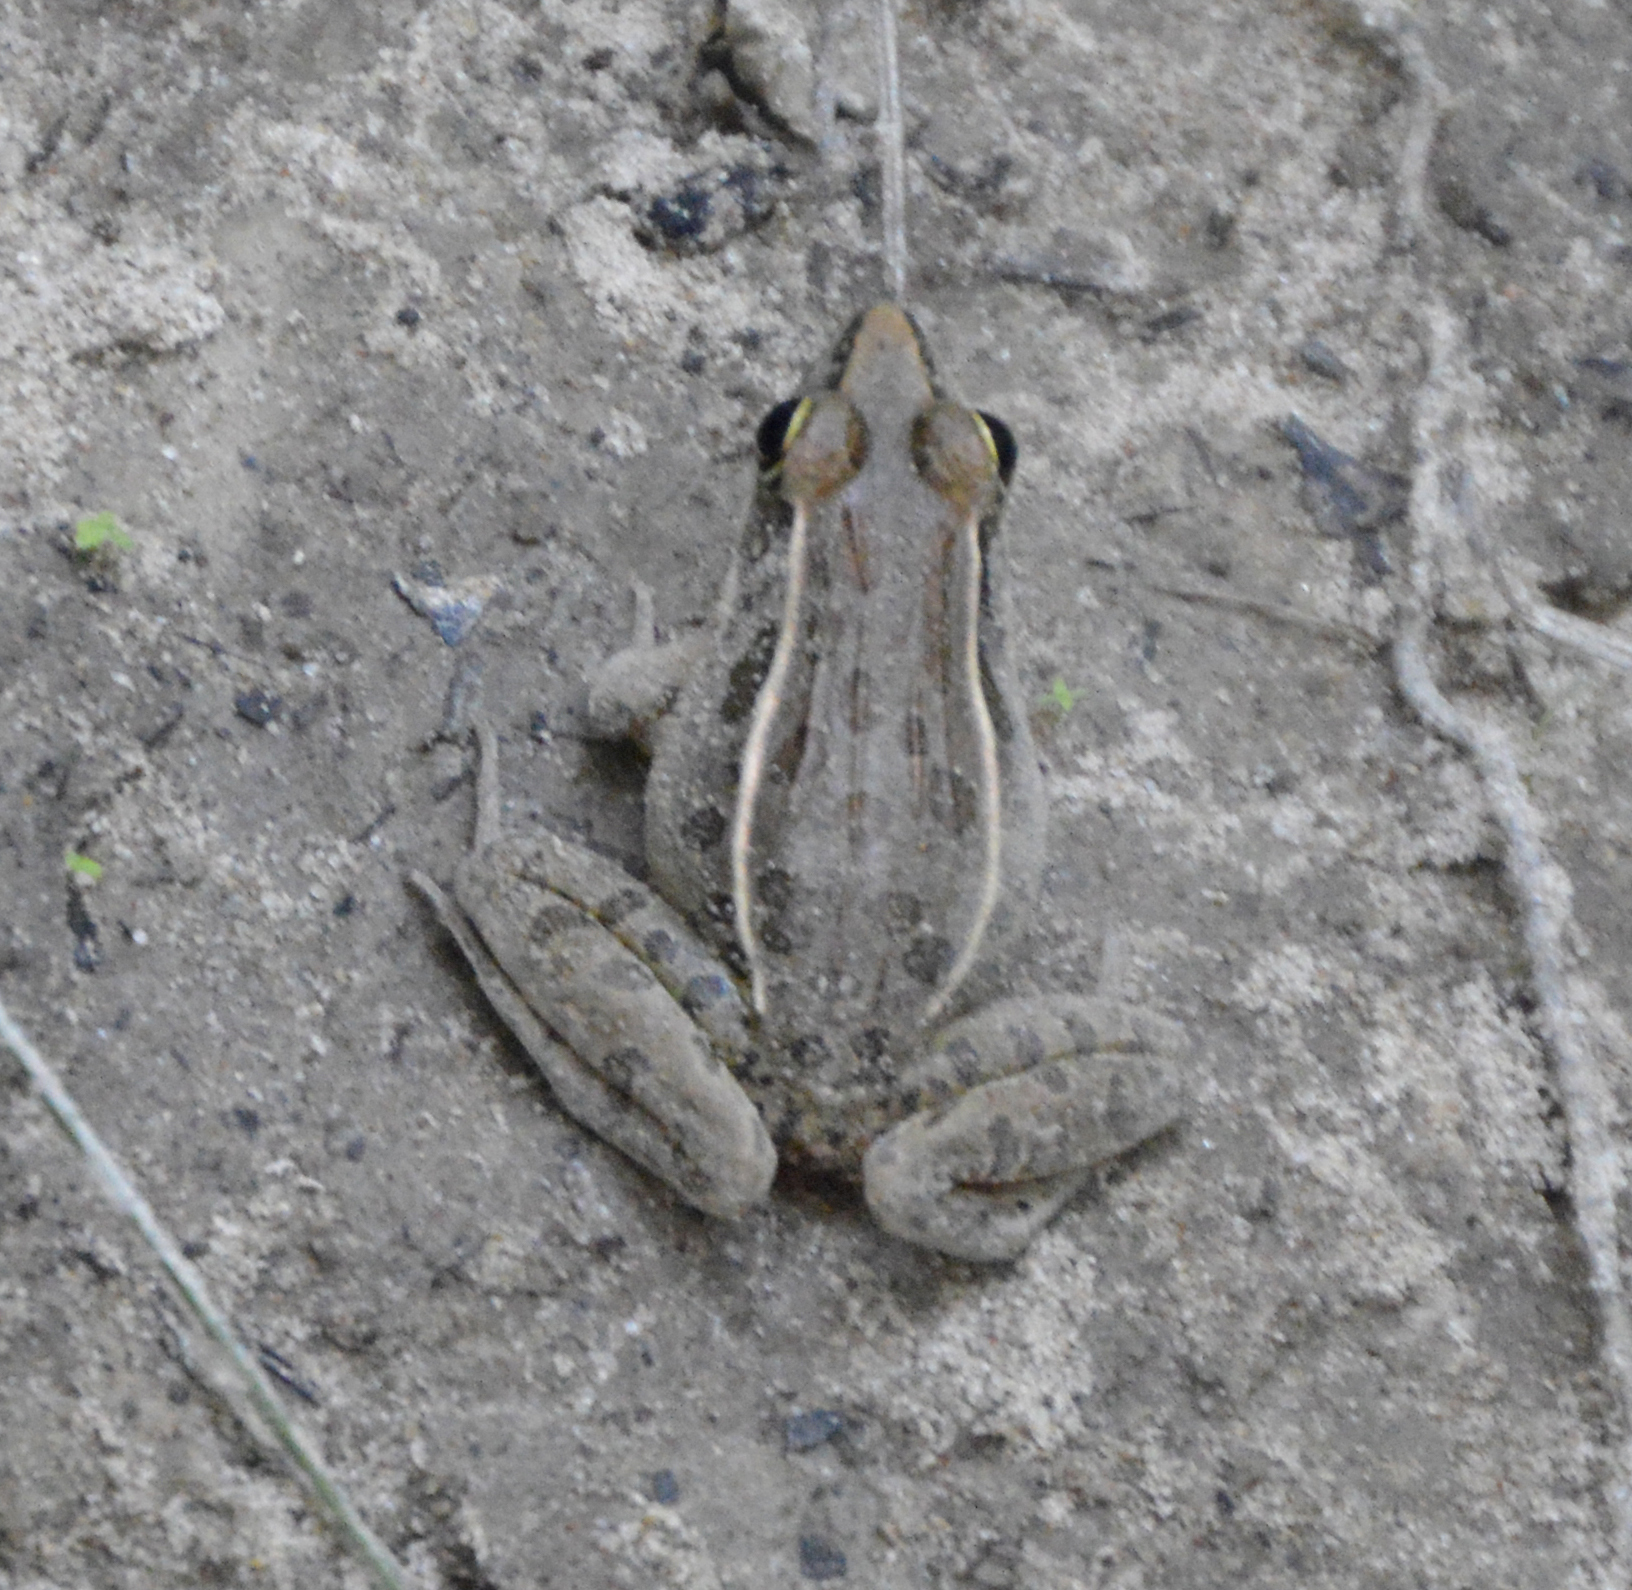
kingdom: Animalia
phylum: Chordata
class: Amphibia
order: Anura
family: Ranidae
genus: Lithobates
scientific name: Lithobates sphenocephalus
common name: Southern leopard frog
